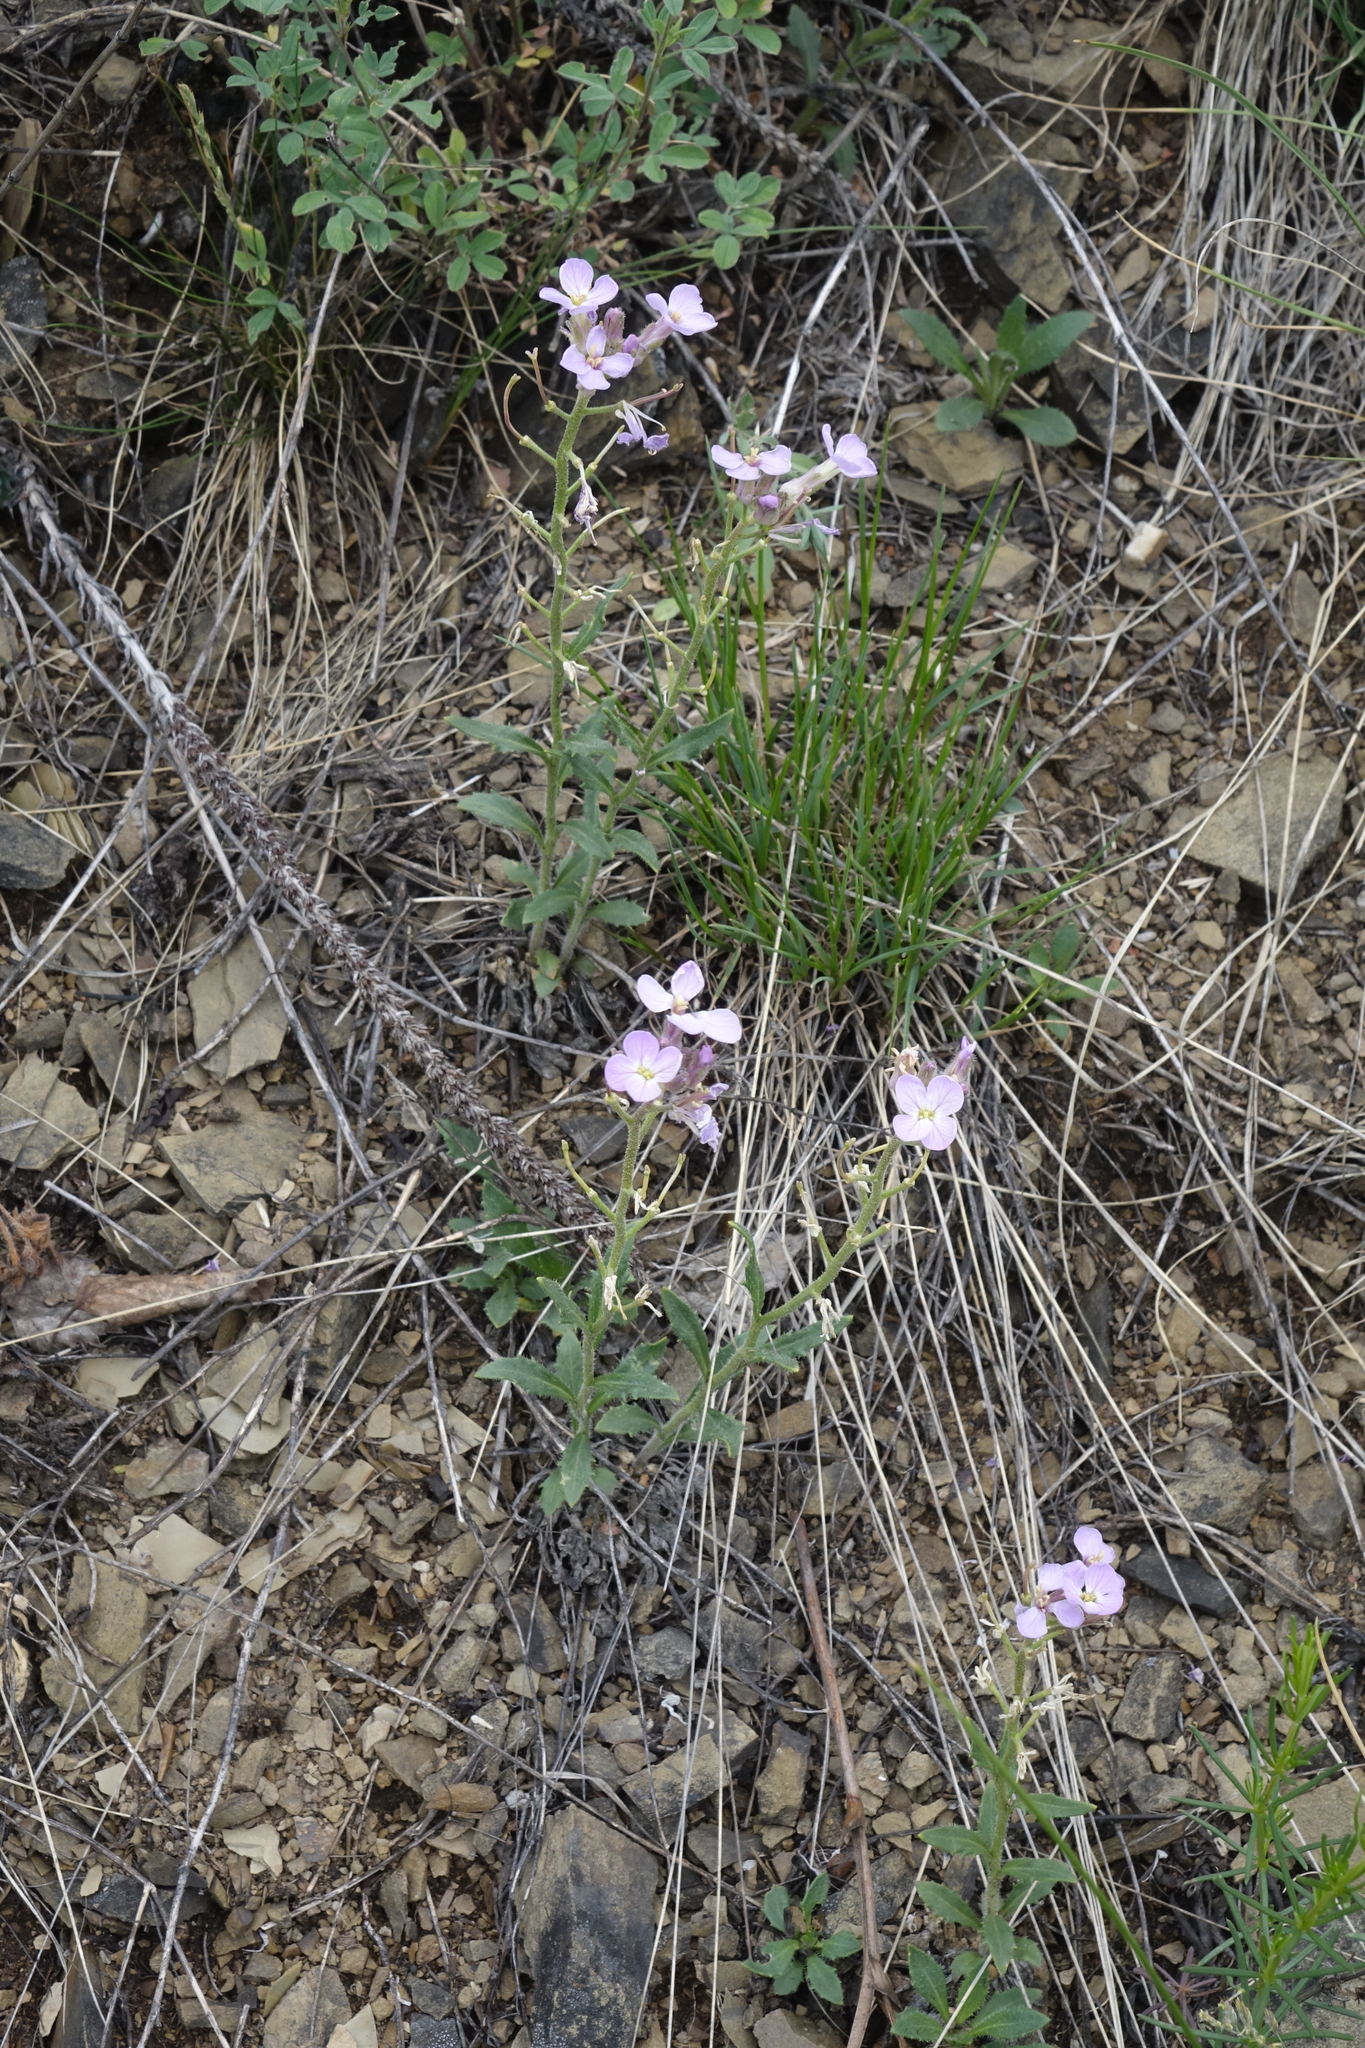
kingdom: Plantae
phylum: Tracheophyta
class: Magnoliopsida
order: Brassicales
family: Brassicaceae
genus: Clausia
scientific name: Clausia aprica
